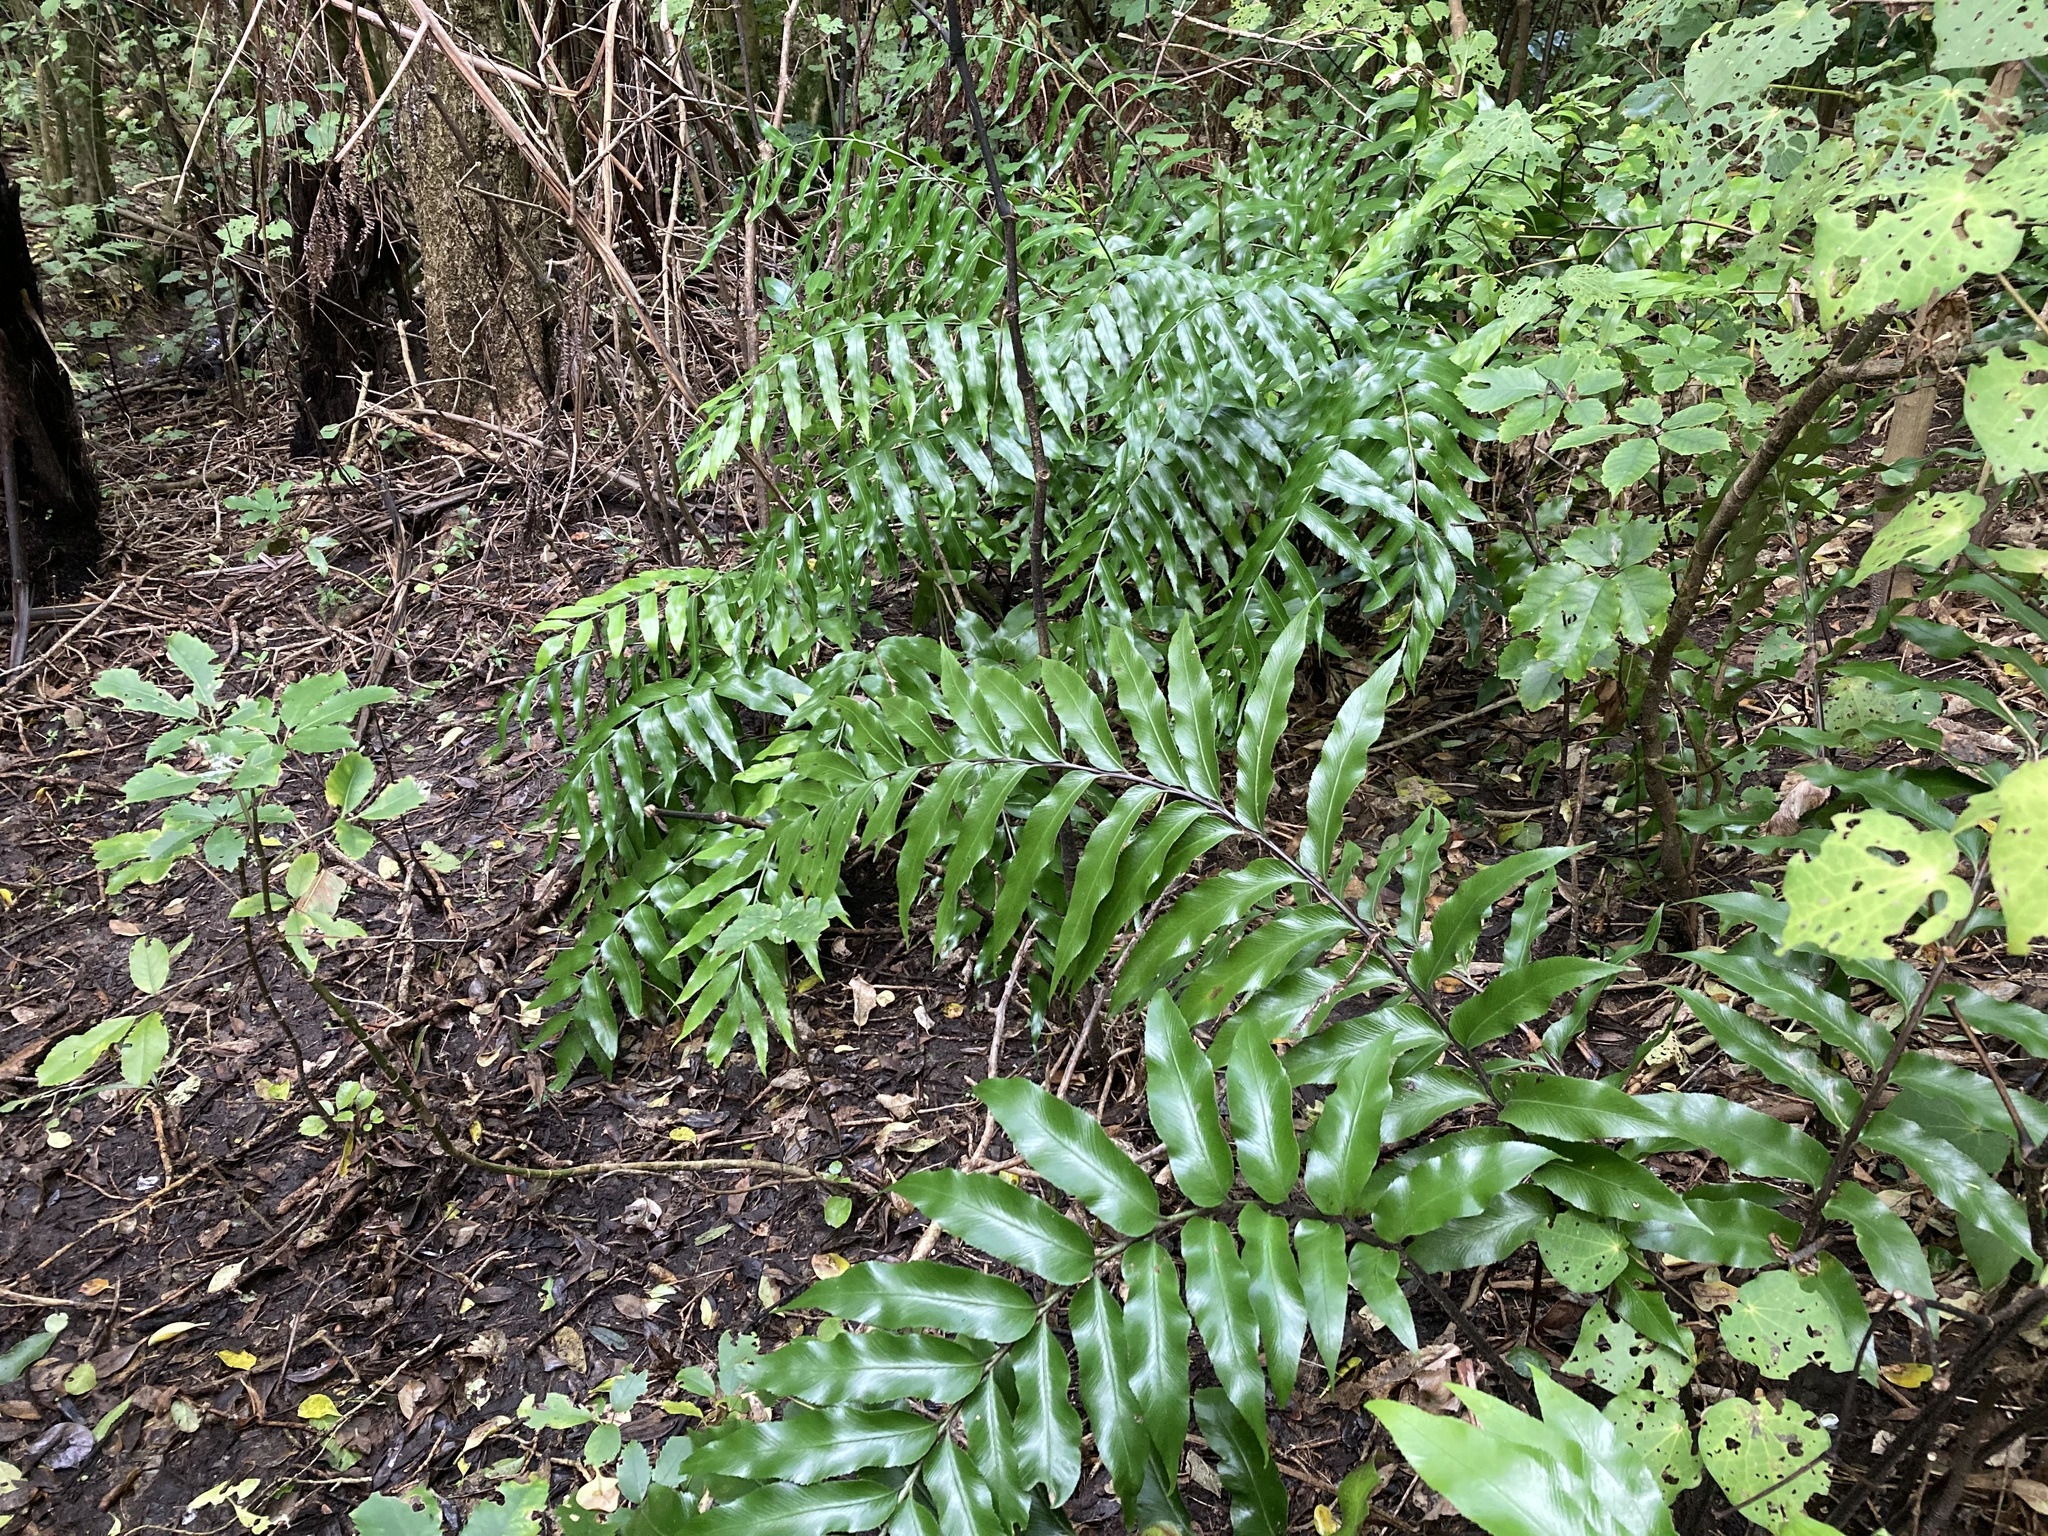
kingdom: Plantae
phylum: Tracheophyta
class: Polypodiopsida
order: Polypodiales
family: Aspleniaceae
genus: Asplenium
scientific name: Asplenium oblongifolium
